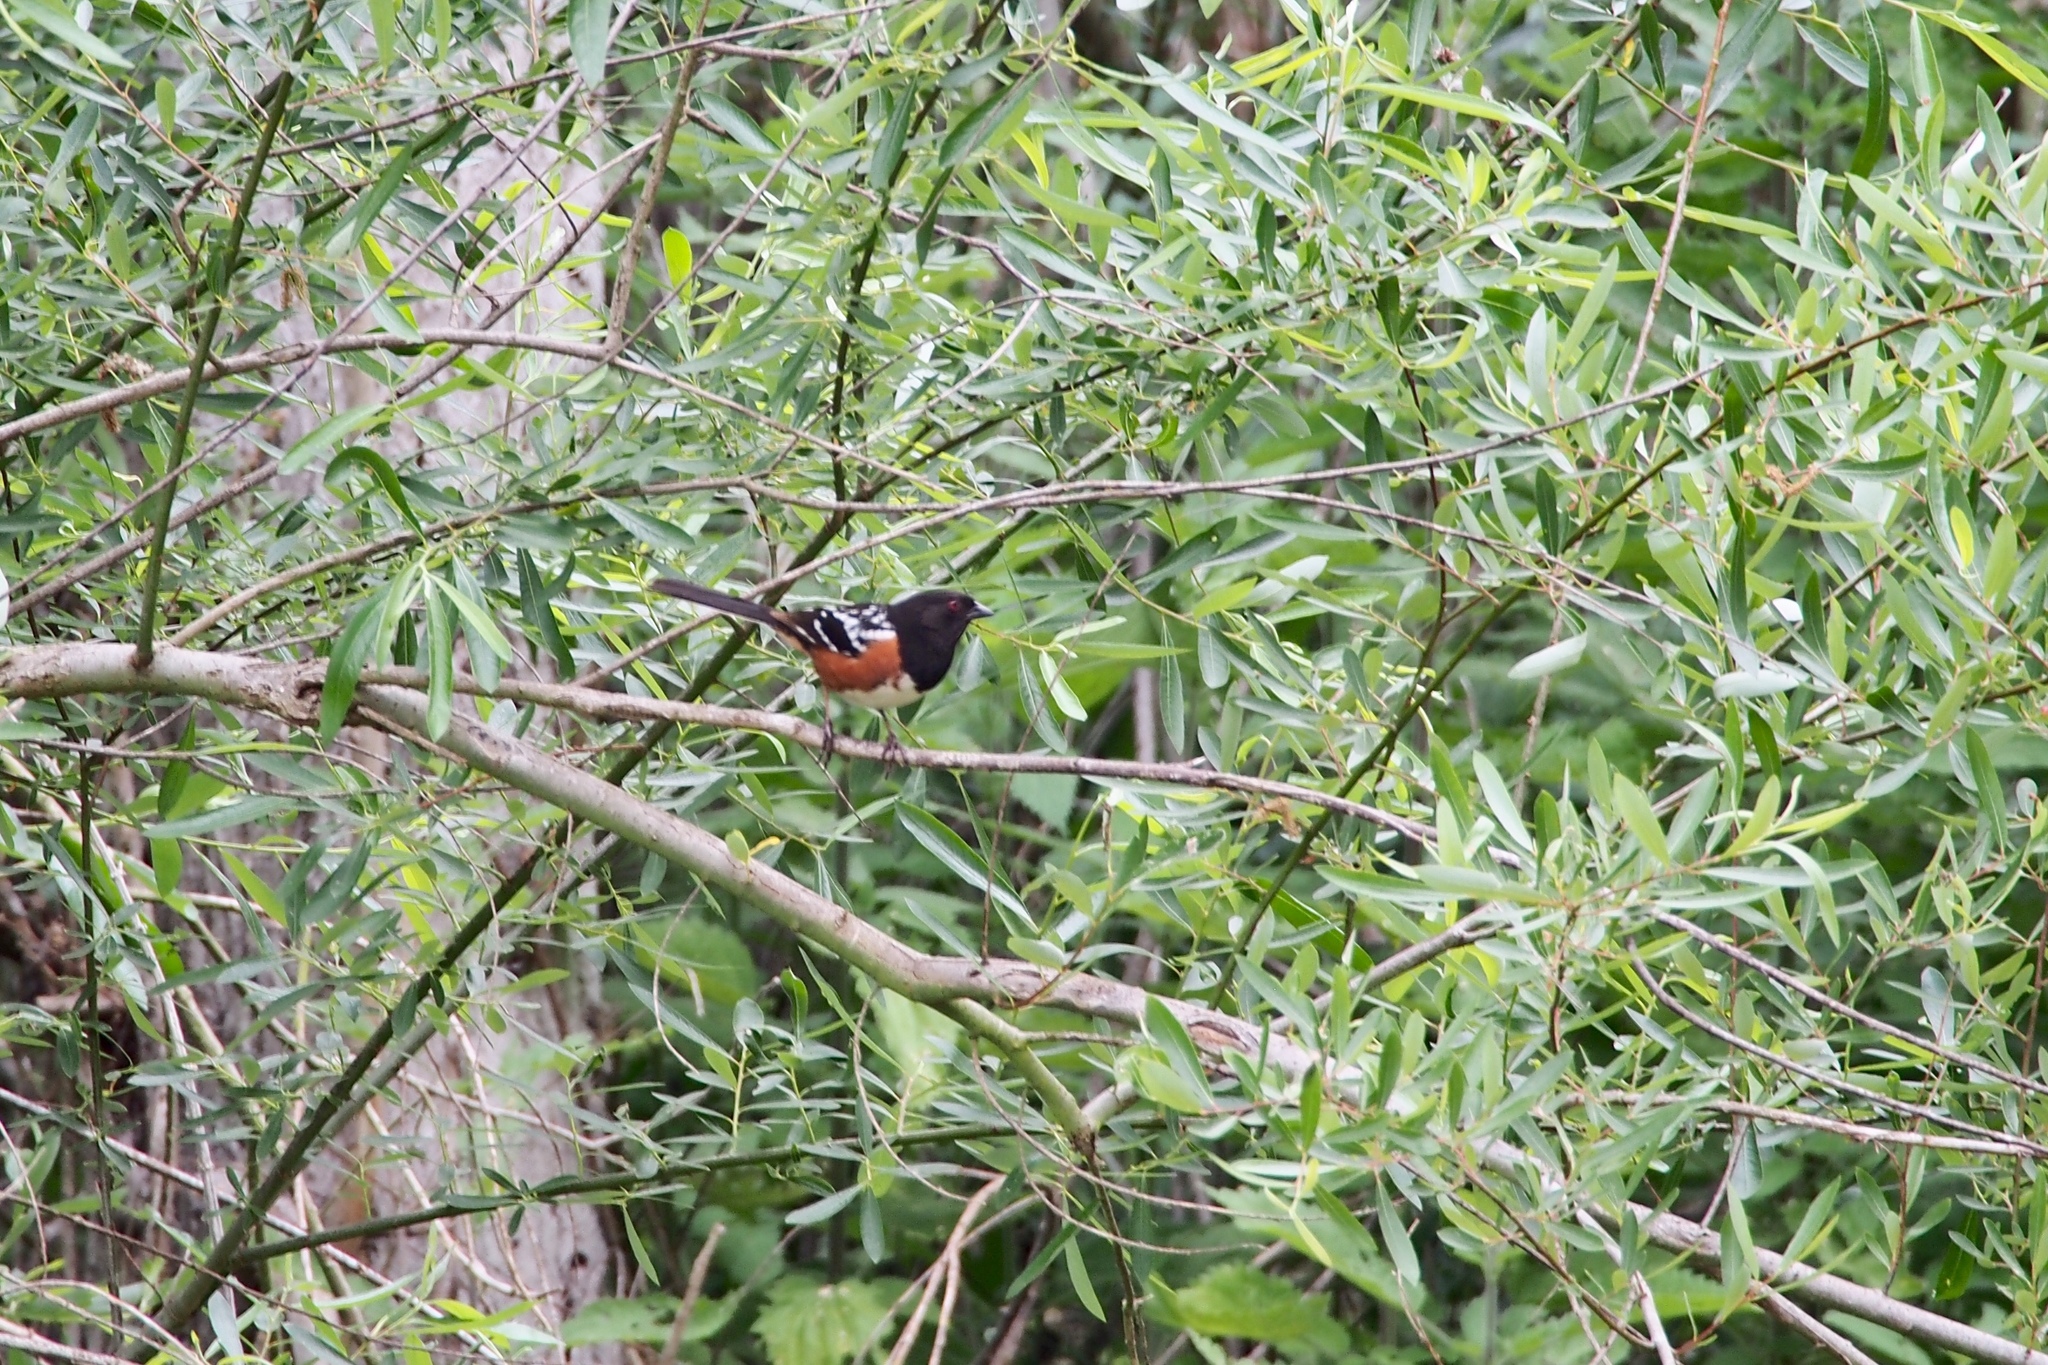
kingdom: Animalia
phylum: Chordata
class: Aves
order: Passeriformes
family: Passerellidae
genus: Pipilo
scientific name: Pipilo maculatus
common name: Spotted towhee
